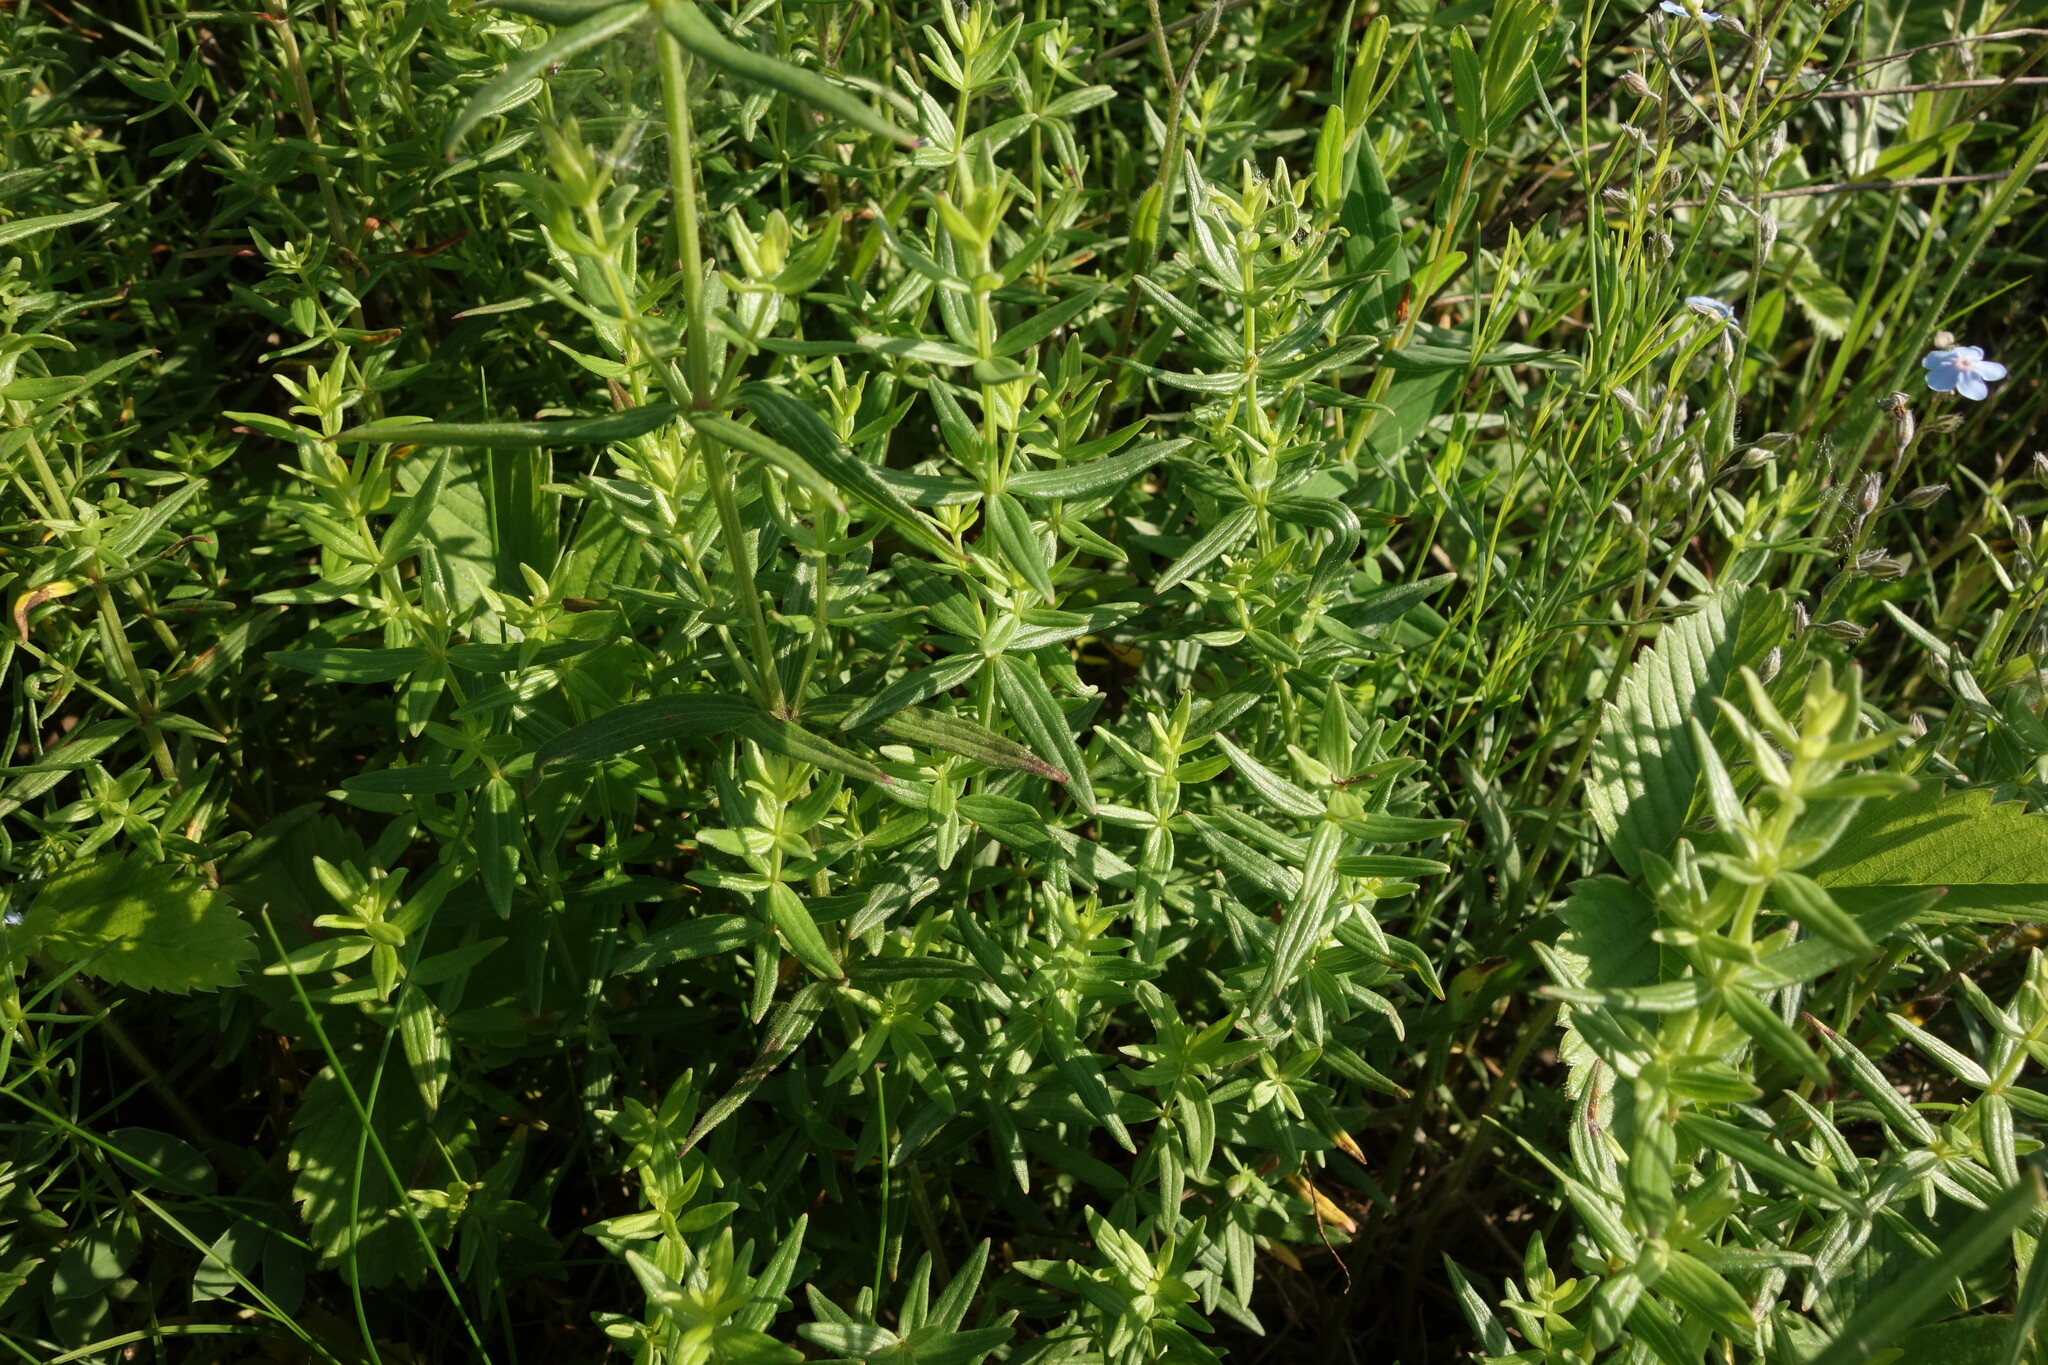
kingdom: Plantae
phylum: Tracheophyta
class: Magnoliopsida
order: Gentianales
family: Rubiaceae
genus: Galium
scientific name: Galium boreale
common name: Northern bedstraw
